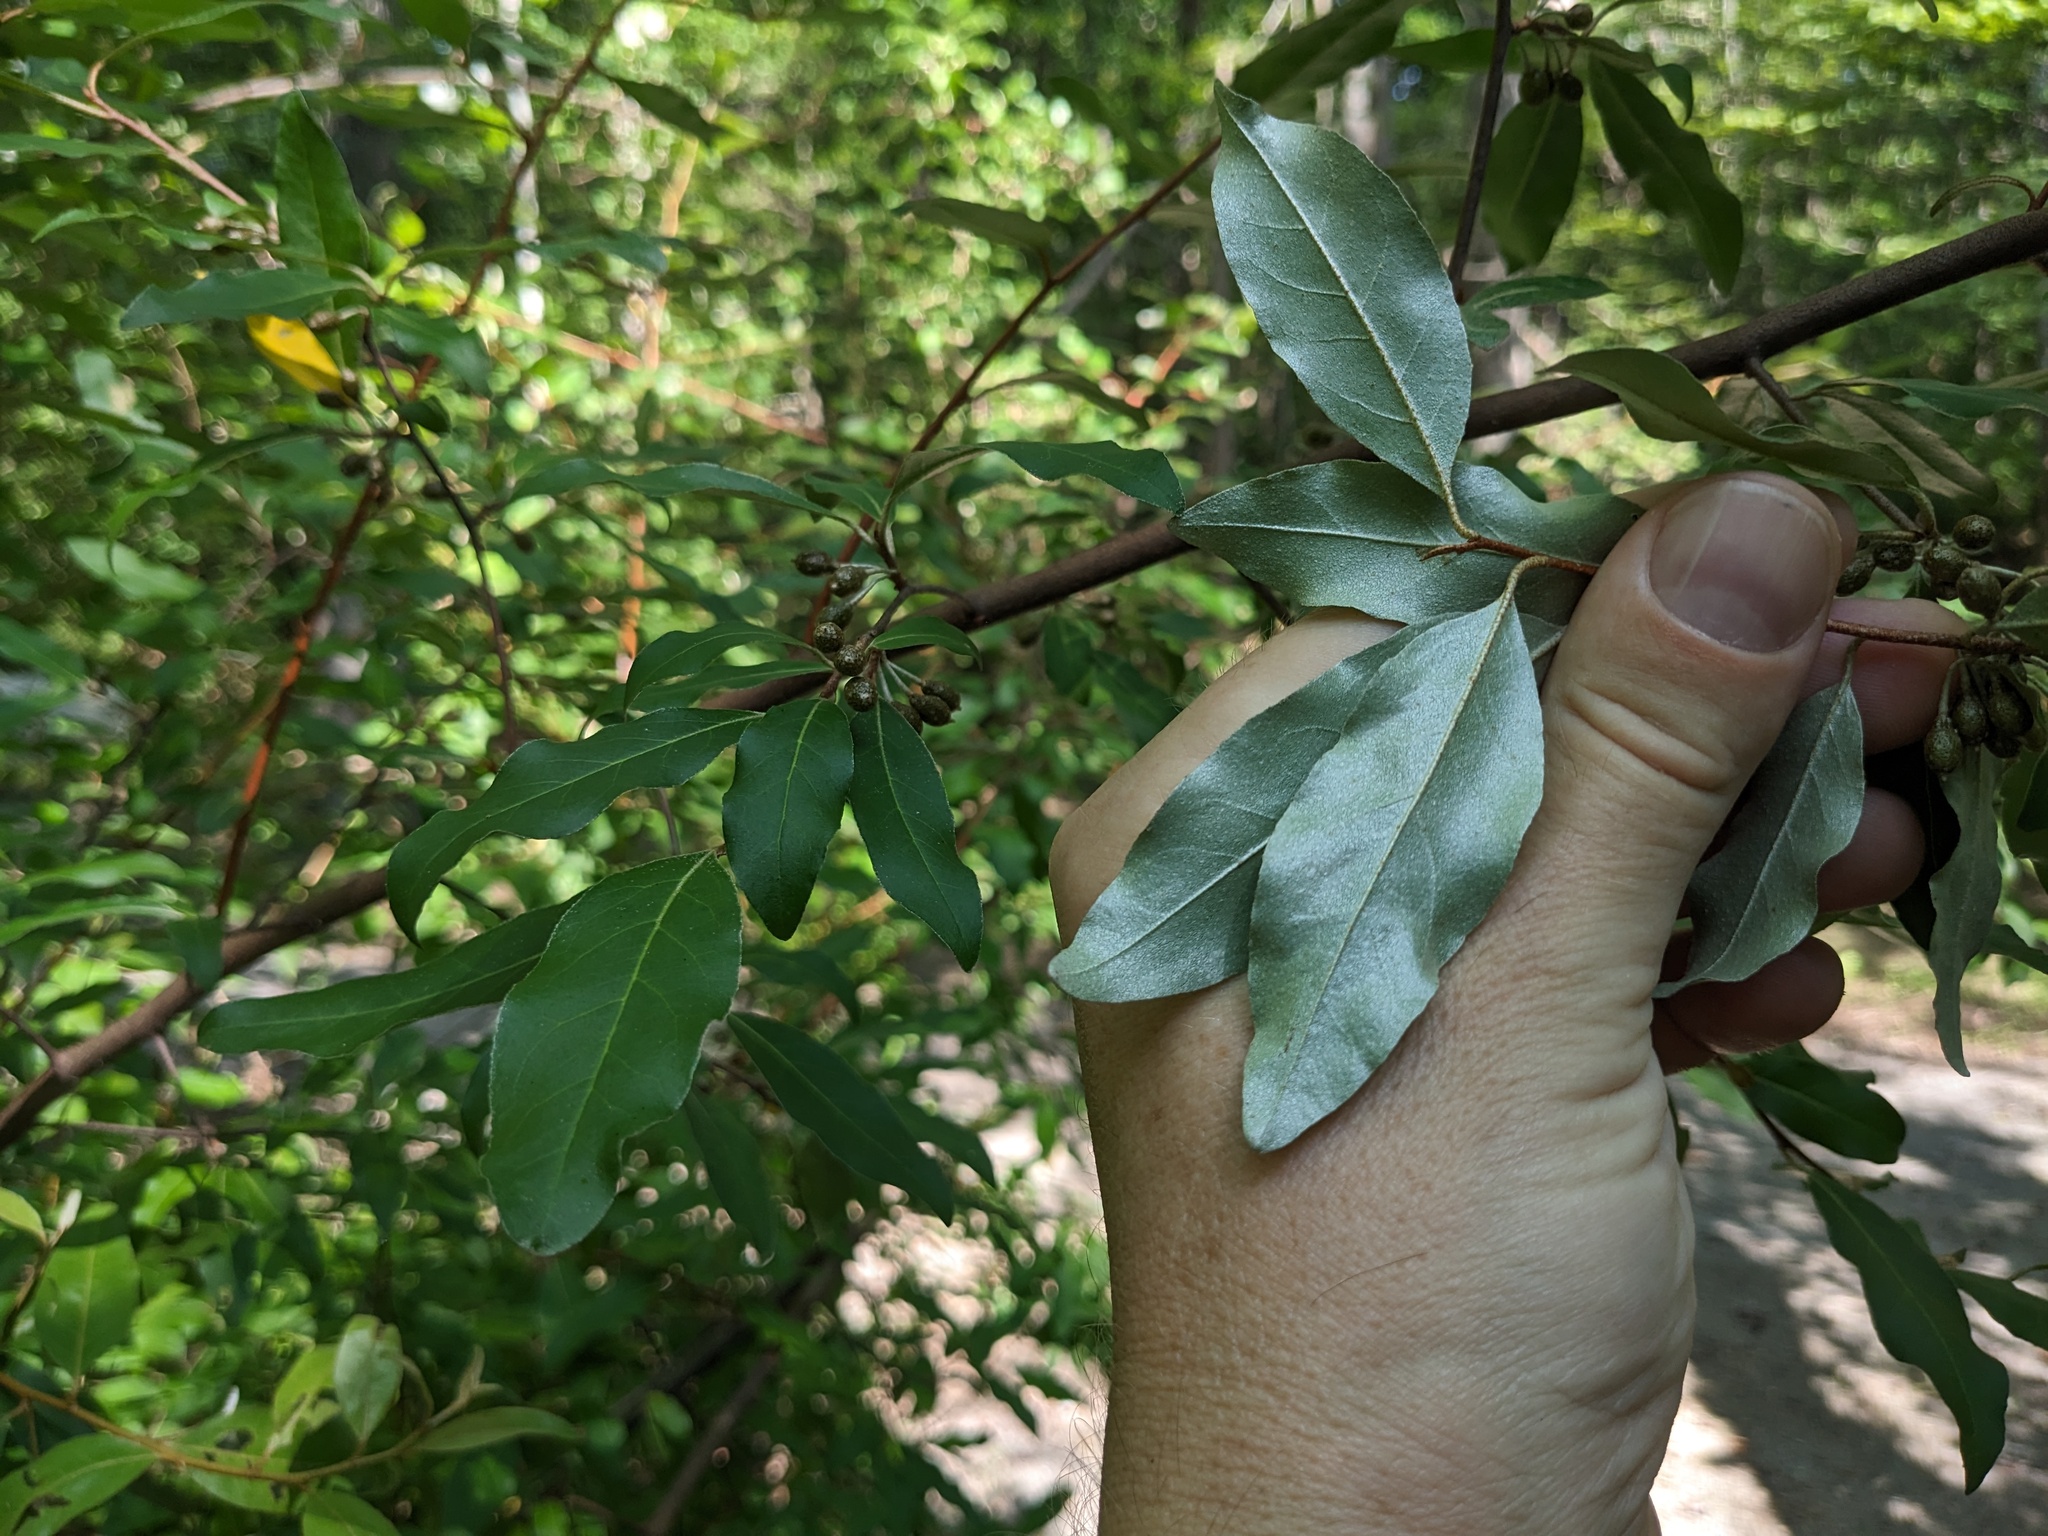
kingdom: Plantae
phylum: Tracheophyta
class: Magnoliopsida
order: Rosales
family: Elaeagnaceae
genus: Elaeagnus
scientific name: Elaeagnus umbellata
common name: Autumn olive
